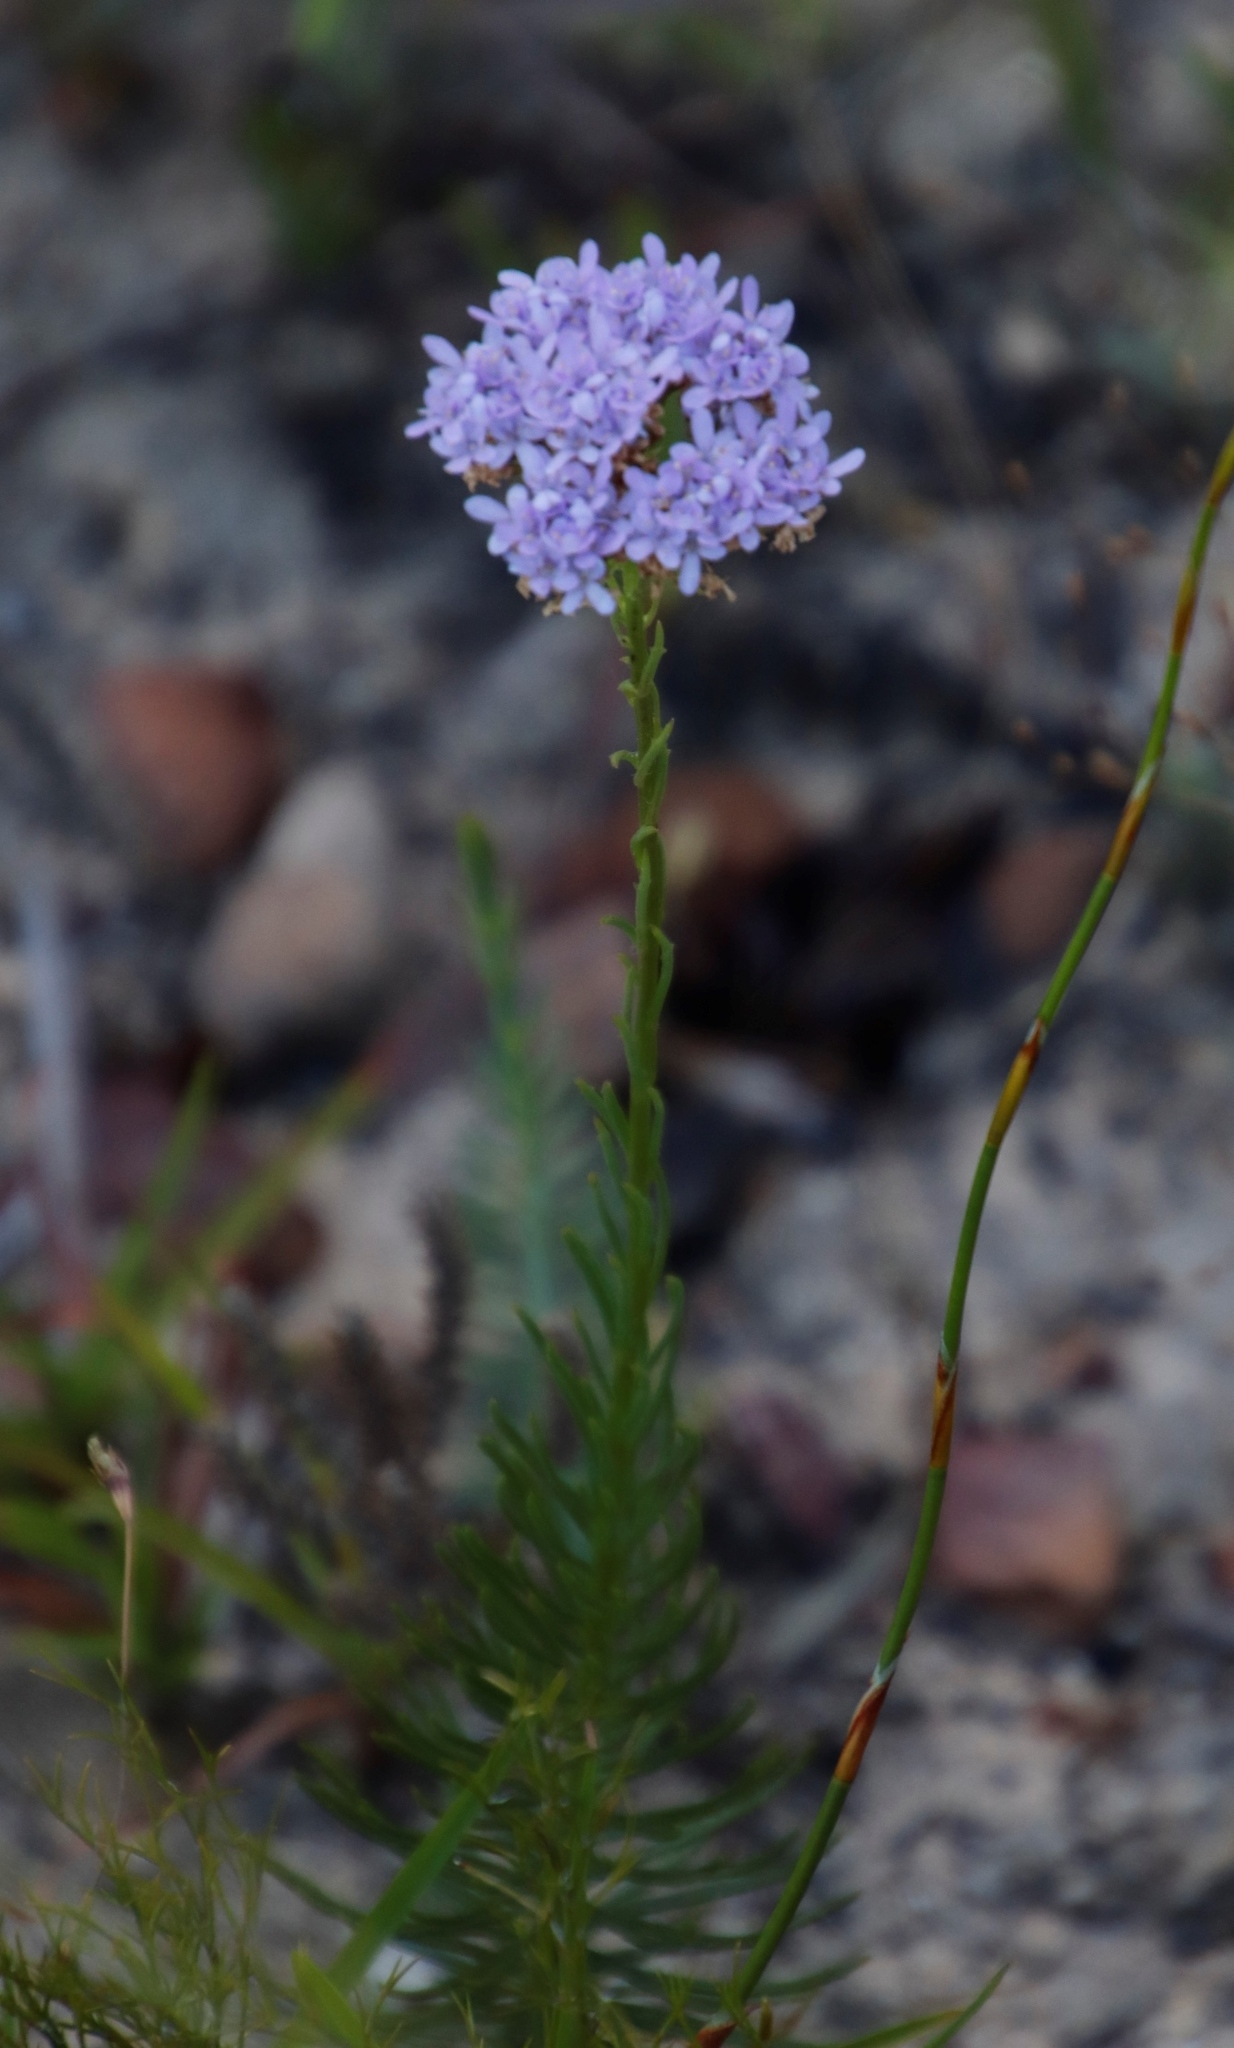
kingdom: Plantae
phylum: Tracheophyta
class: Magnoliopsida
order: Lamiales
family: Scrophulariaceae
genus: Pseudoselago
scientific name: Pseudoselago spuria
